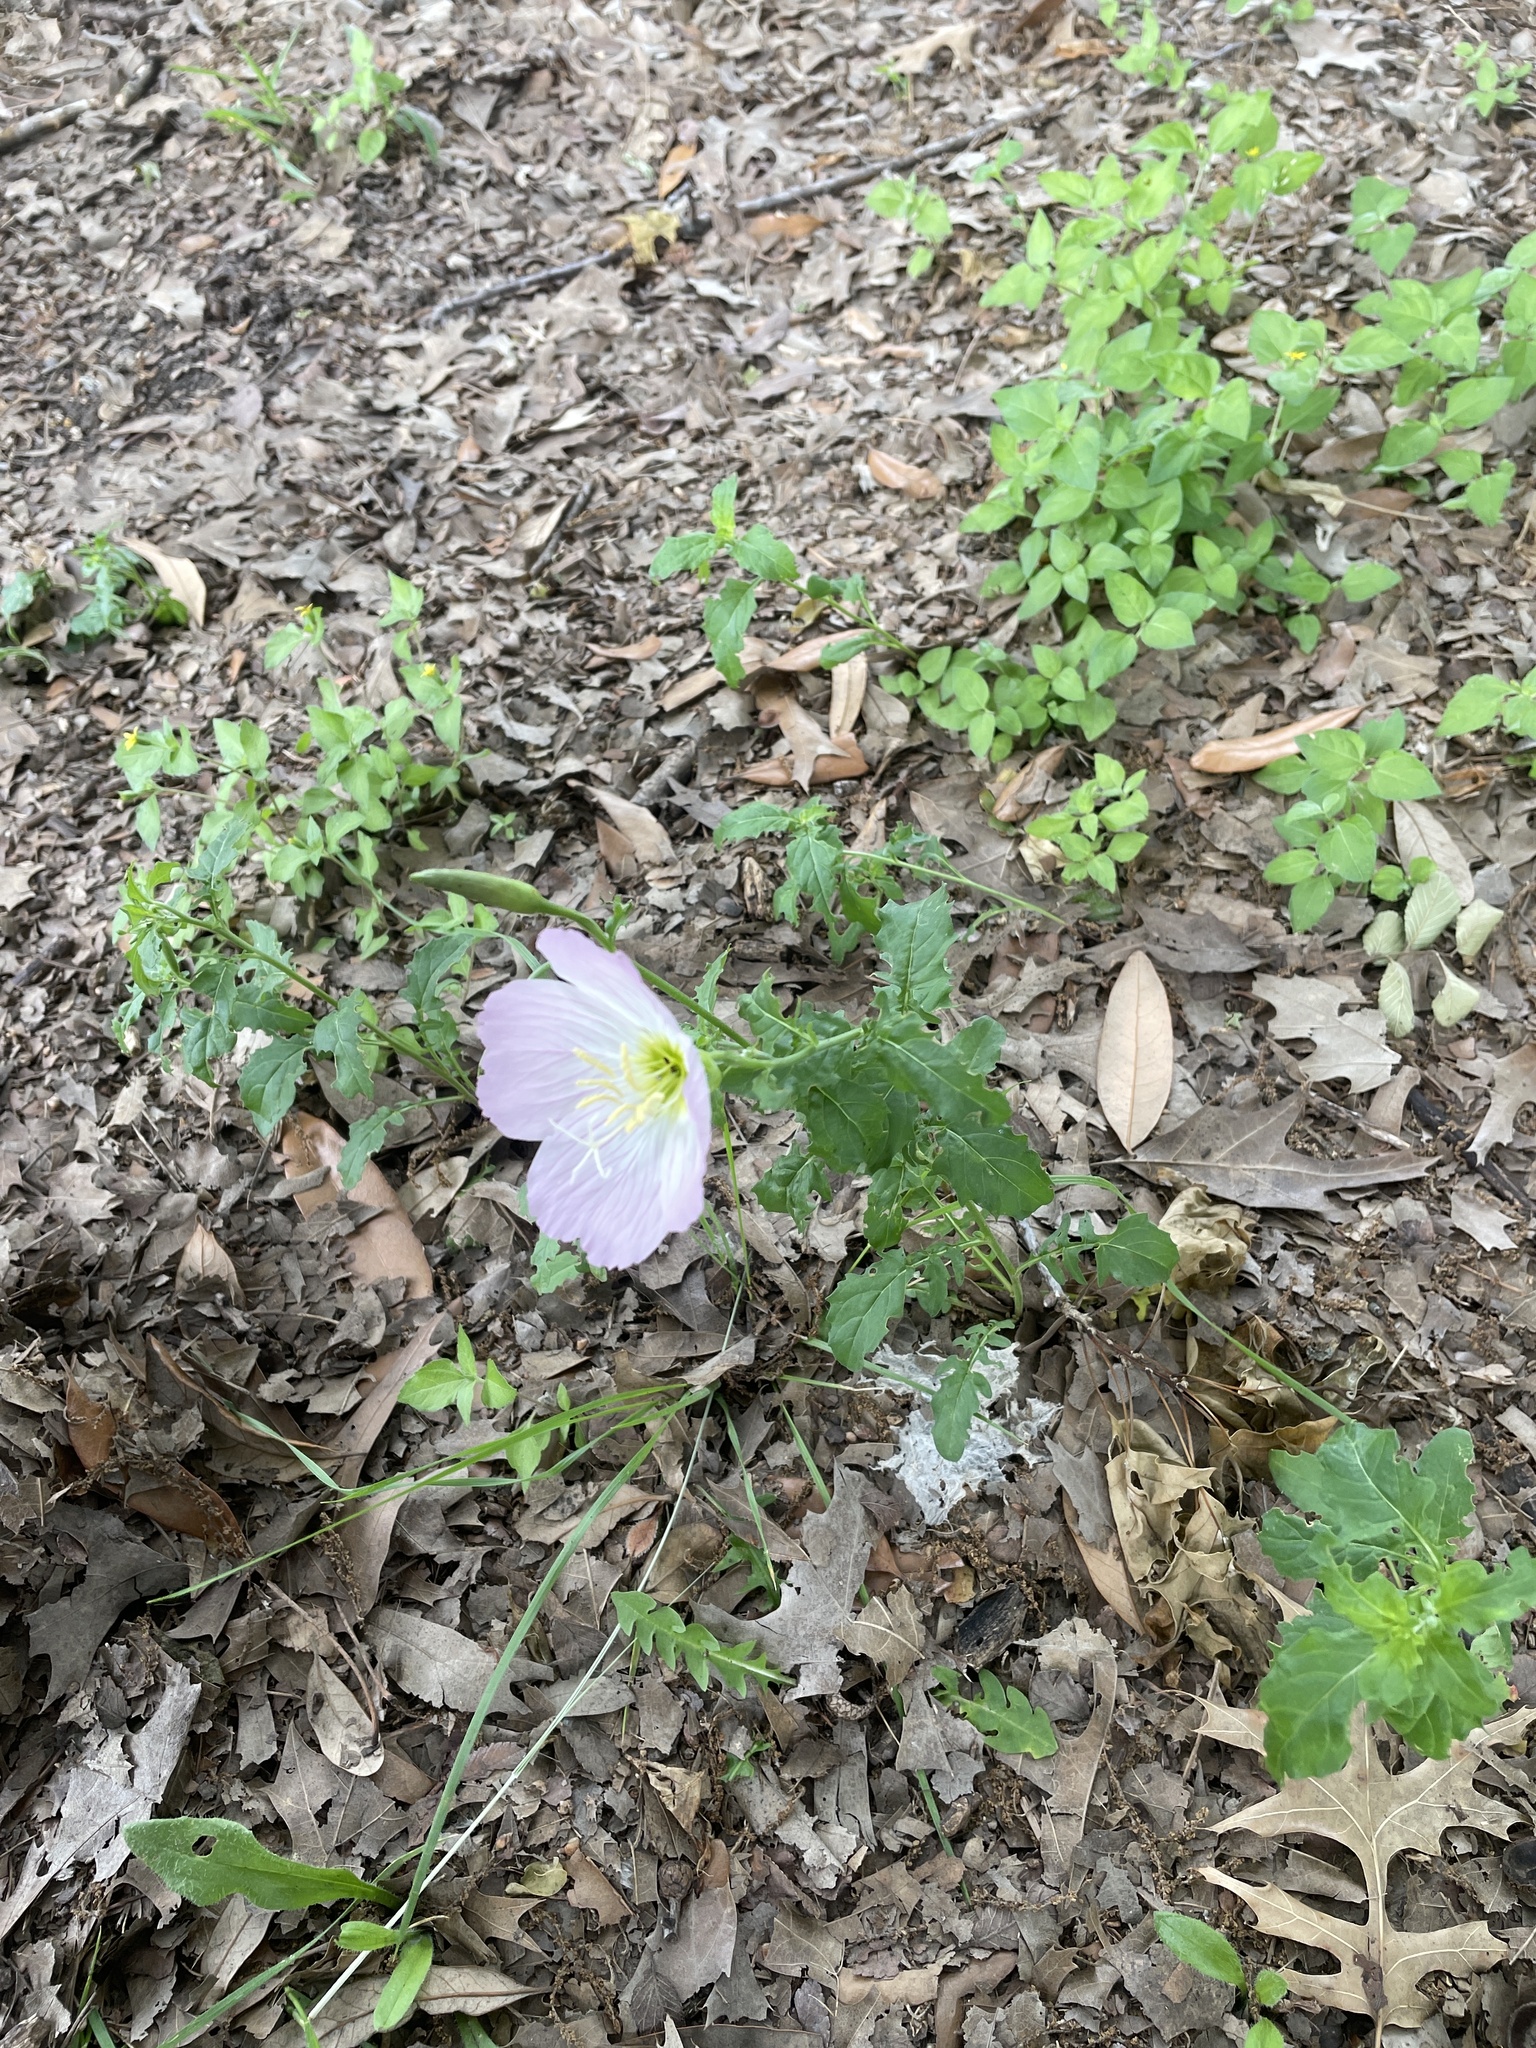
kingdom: Plantae
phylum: Tracheophyta
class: Magnoliopsida
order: Myrtales
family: Onagraceae
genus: Oenothera
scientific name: Oenothera speciosa
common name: White evening-primrose
